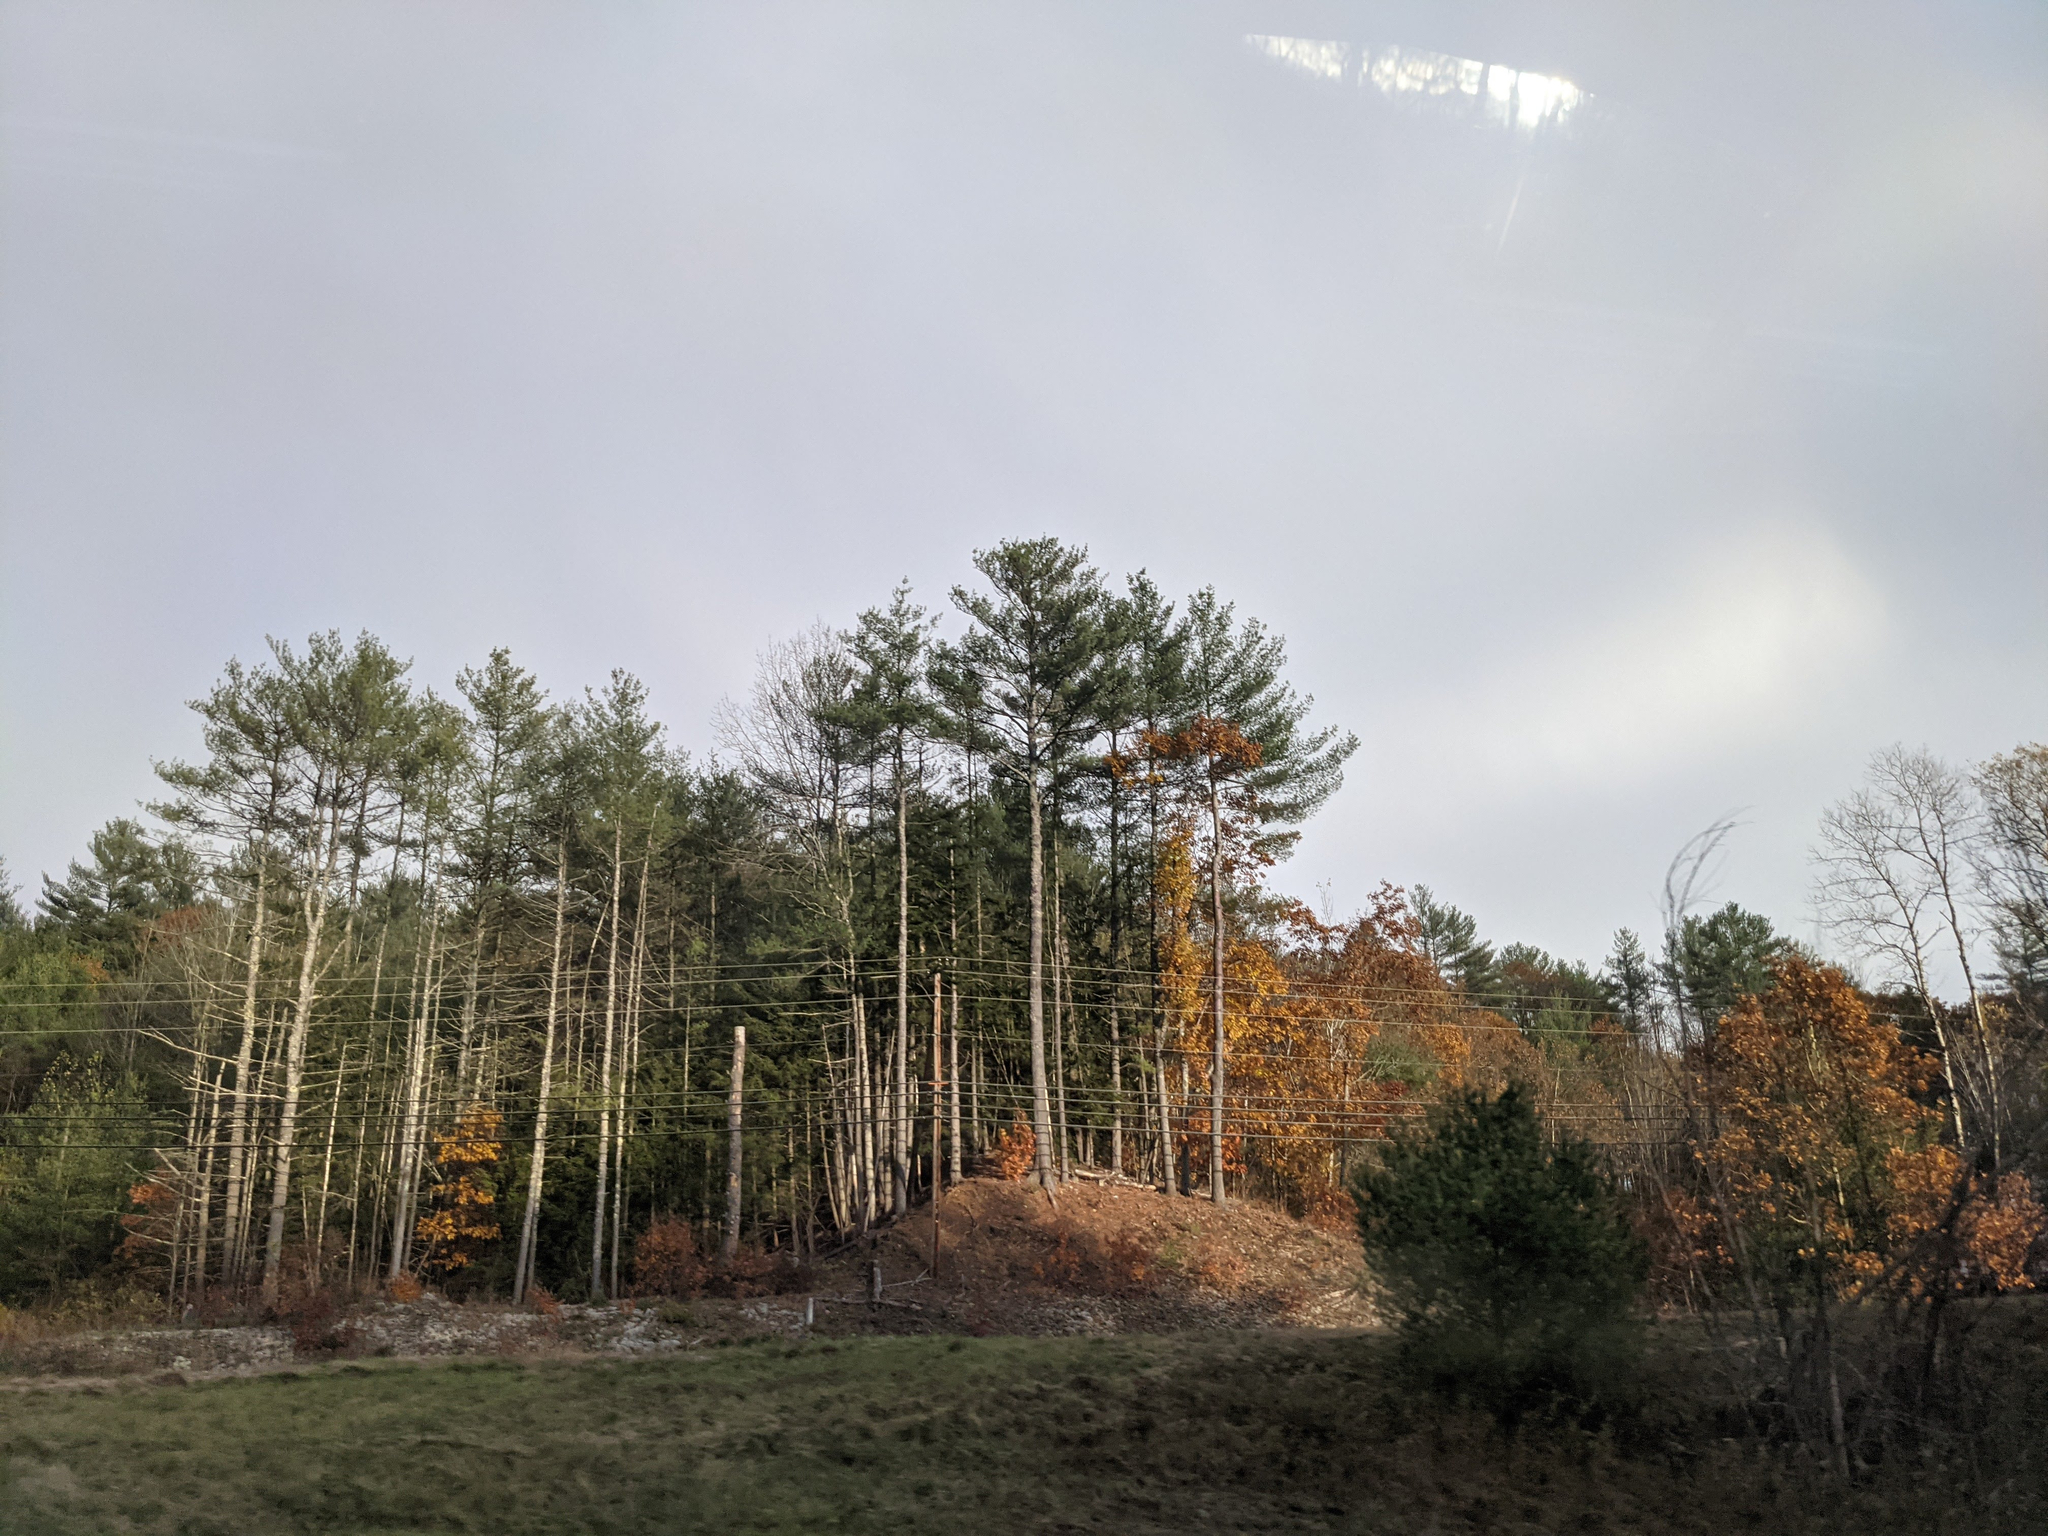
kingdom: Plantae
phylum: Tracheophyta
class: Pinopsida
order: Pinales
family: Pinaceae
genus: Pinus
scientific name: Pinus strobus
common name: Weymouth pine
